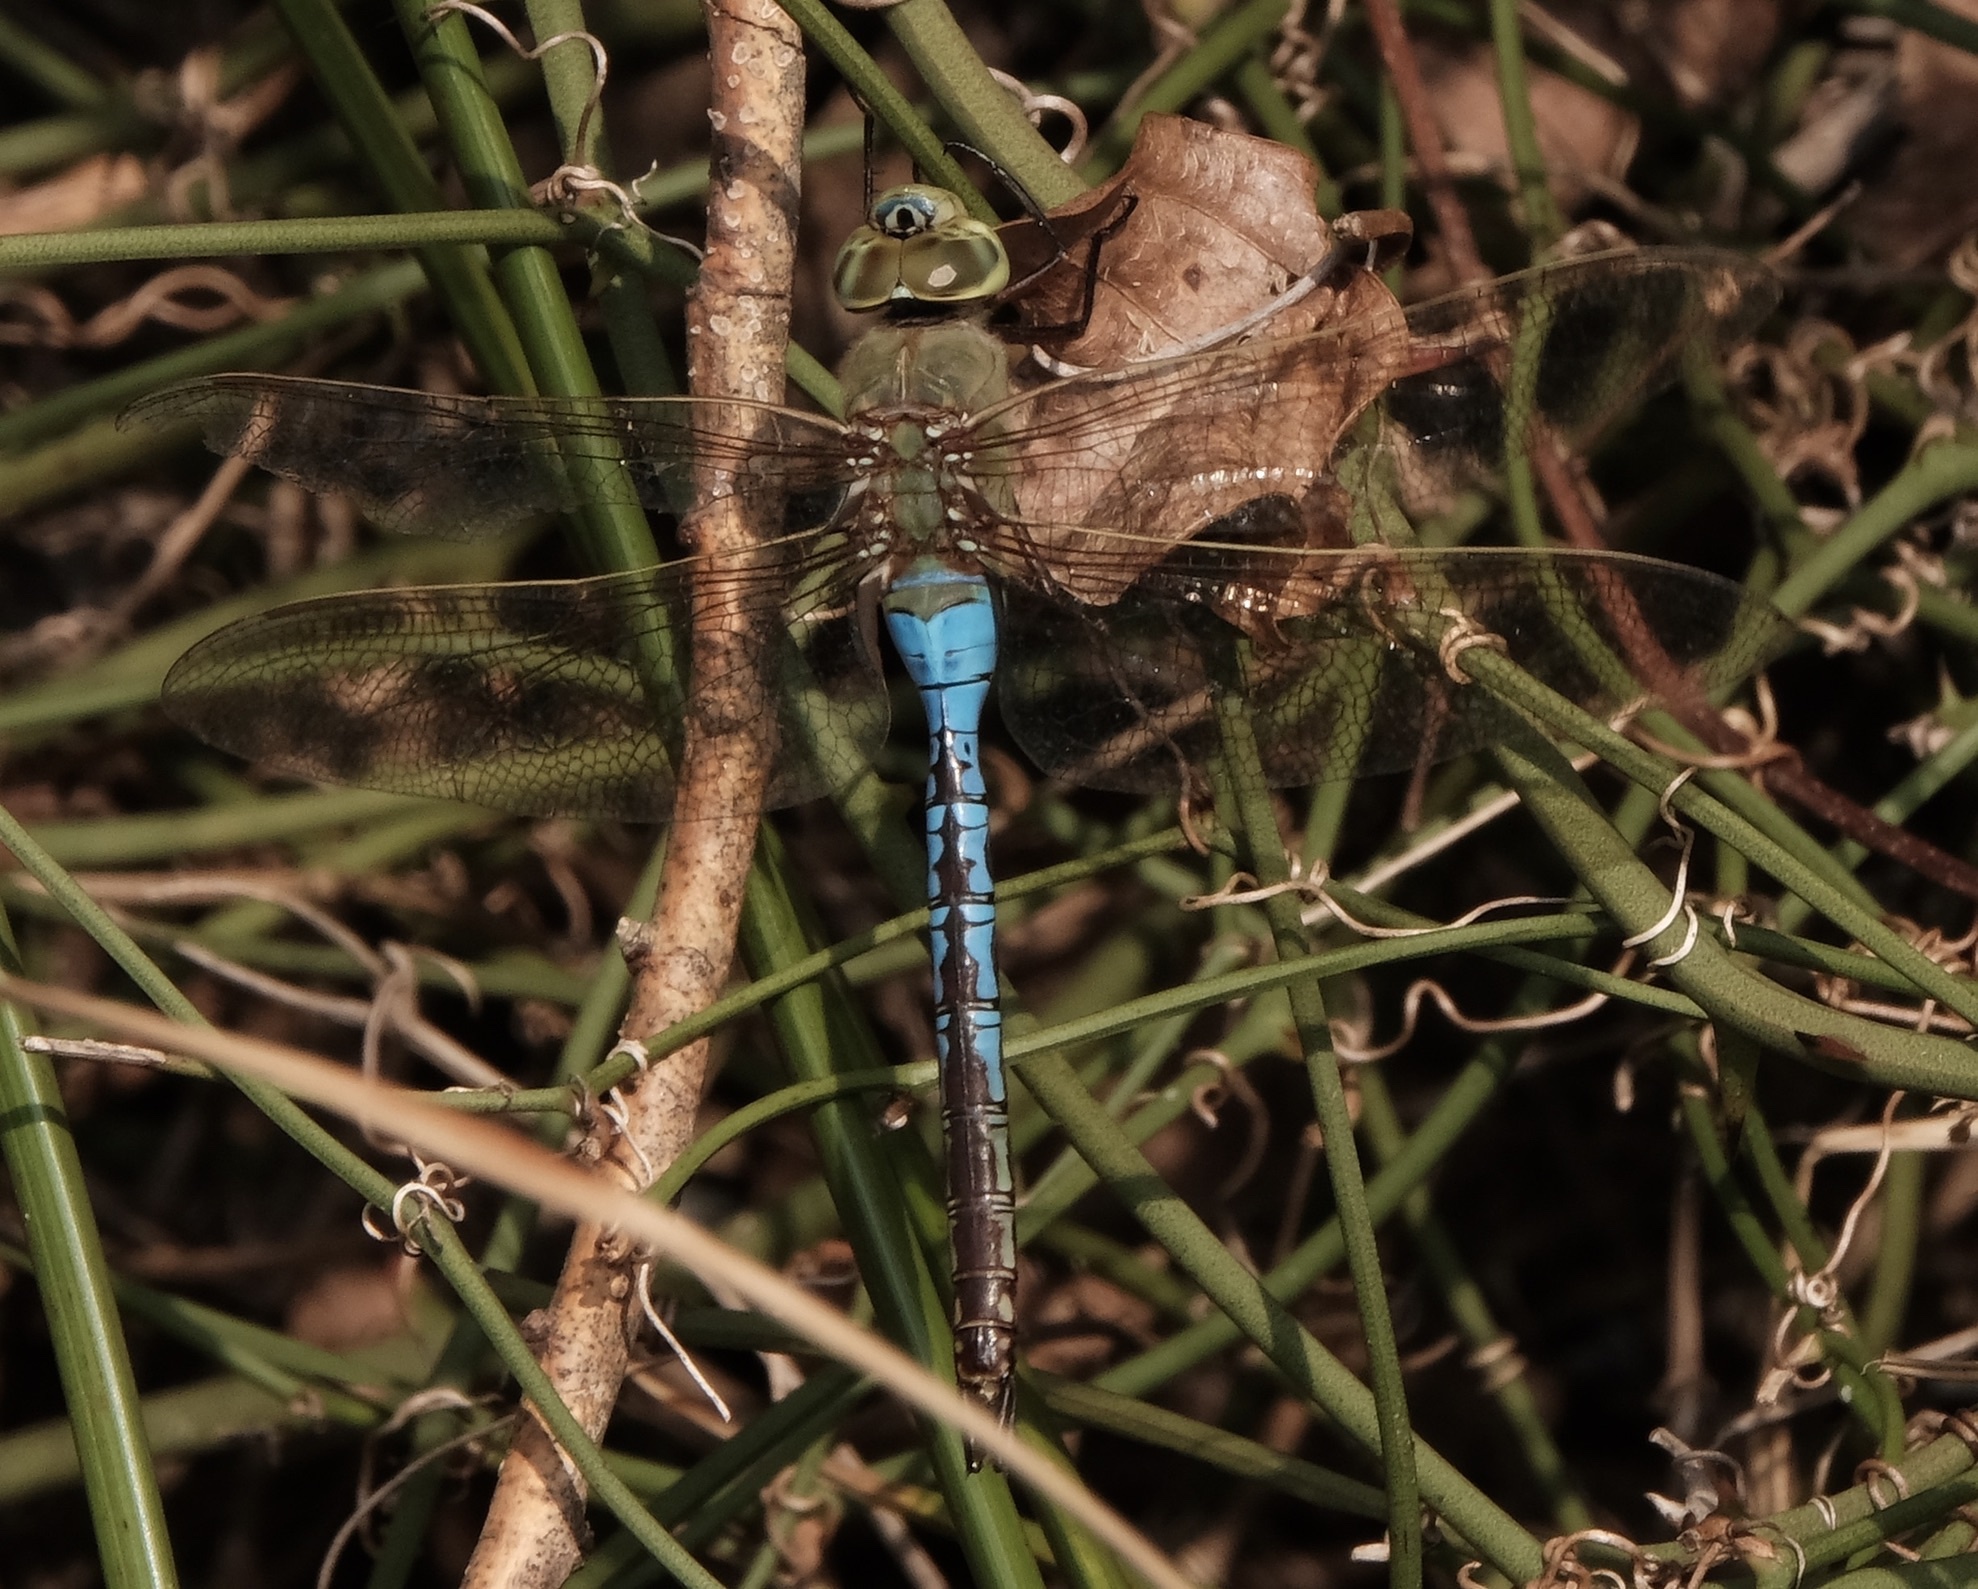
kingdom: Animalia
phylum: Arthropoda
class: Insecta
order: Odonata
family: Aeshnidae
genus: Anax
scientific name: Anax junius
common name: Common green darner
